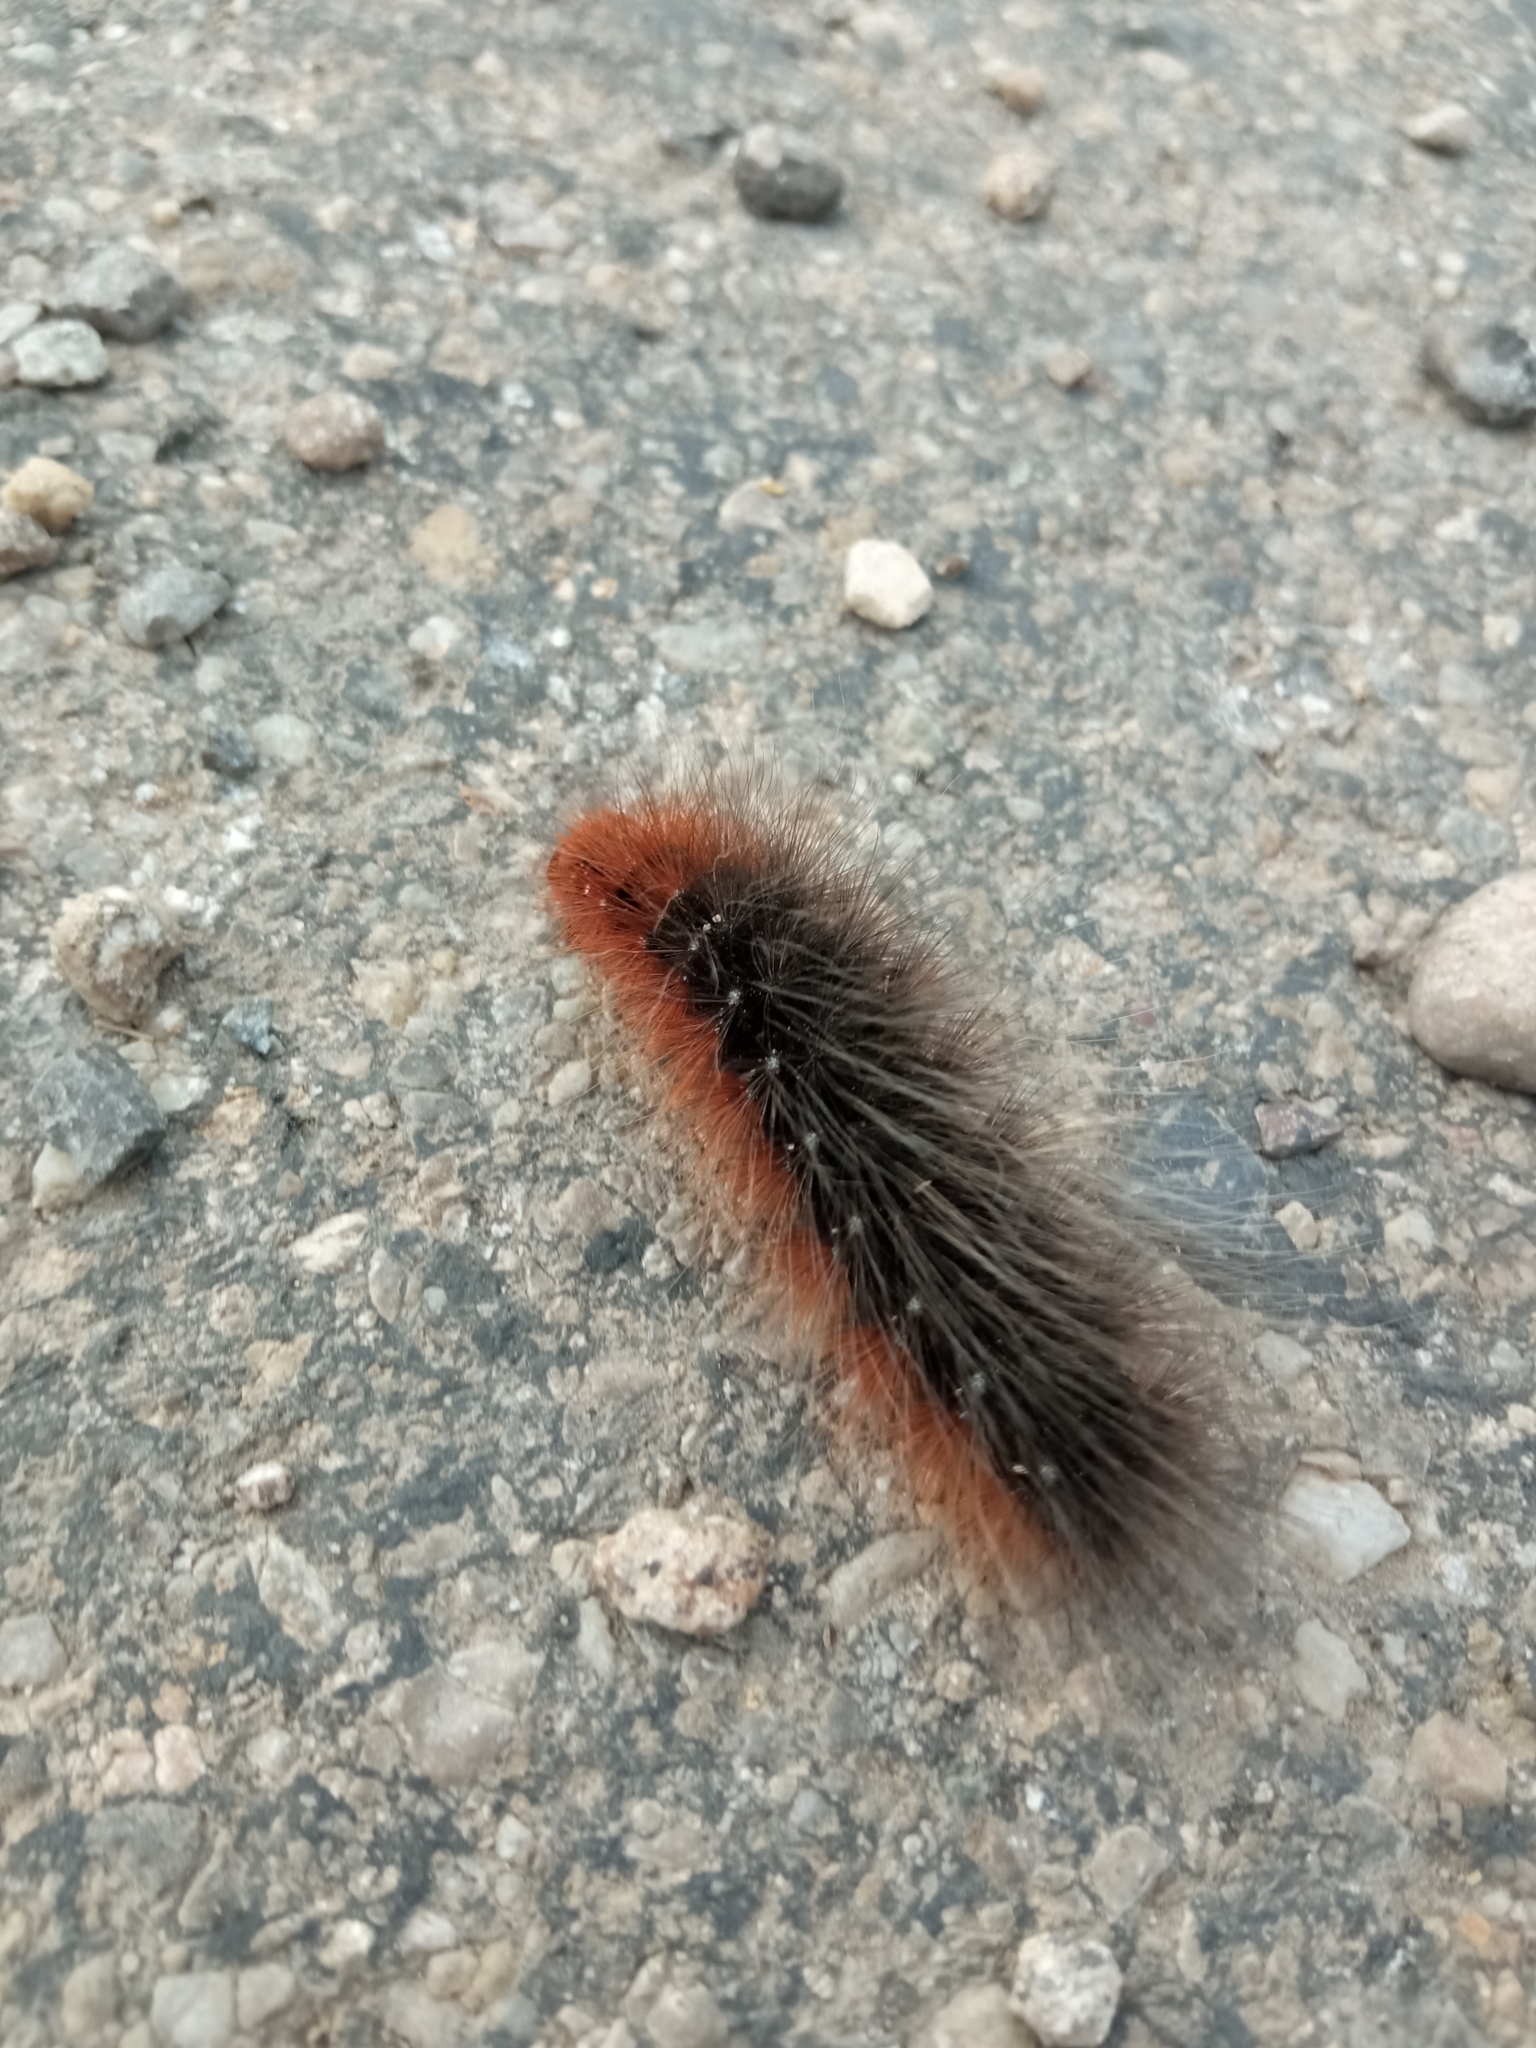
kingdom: Animalia
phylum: Arthropoda
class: Insecta
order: Lepidoptera
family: Erebidae
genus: Arctia
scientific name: Arctia caja
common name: Garden tiger
